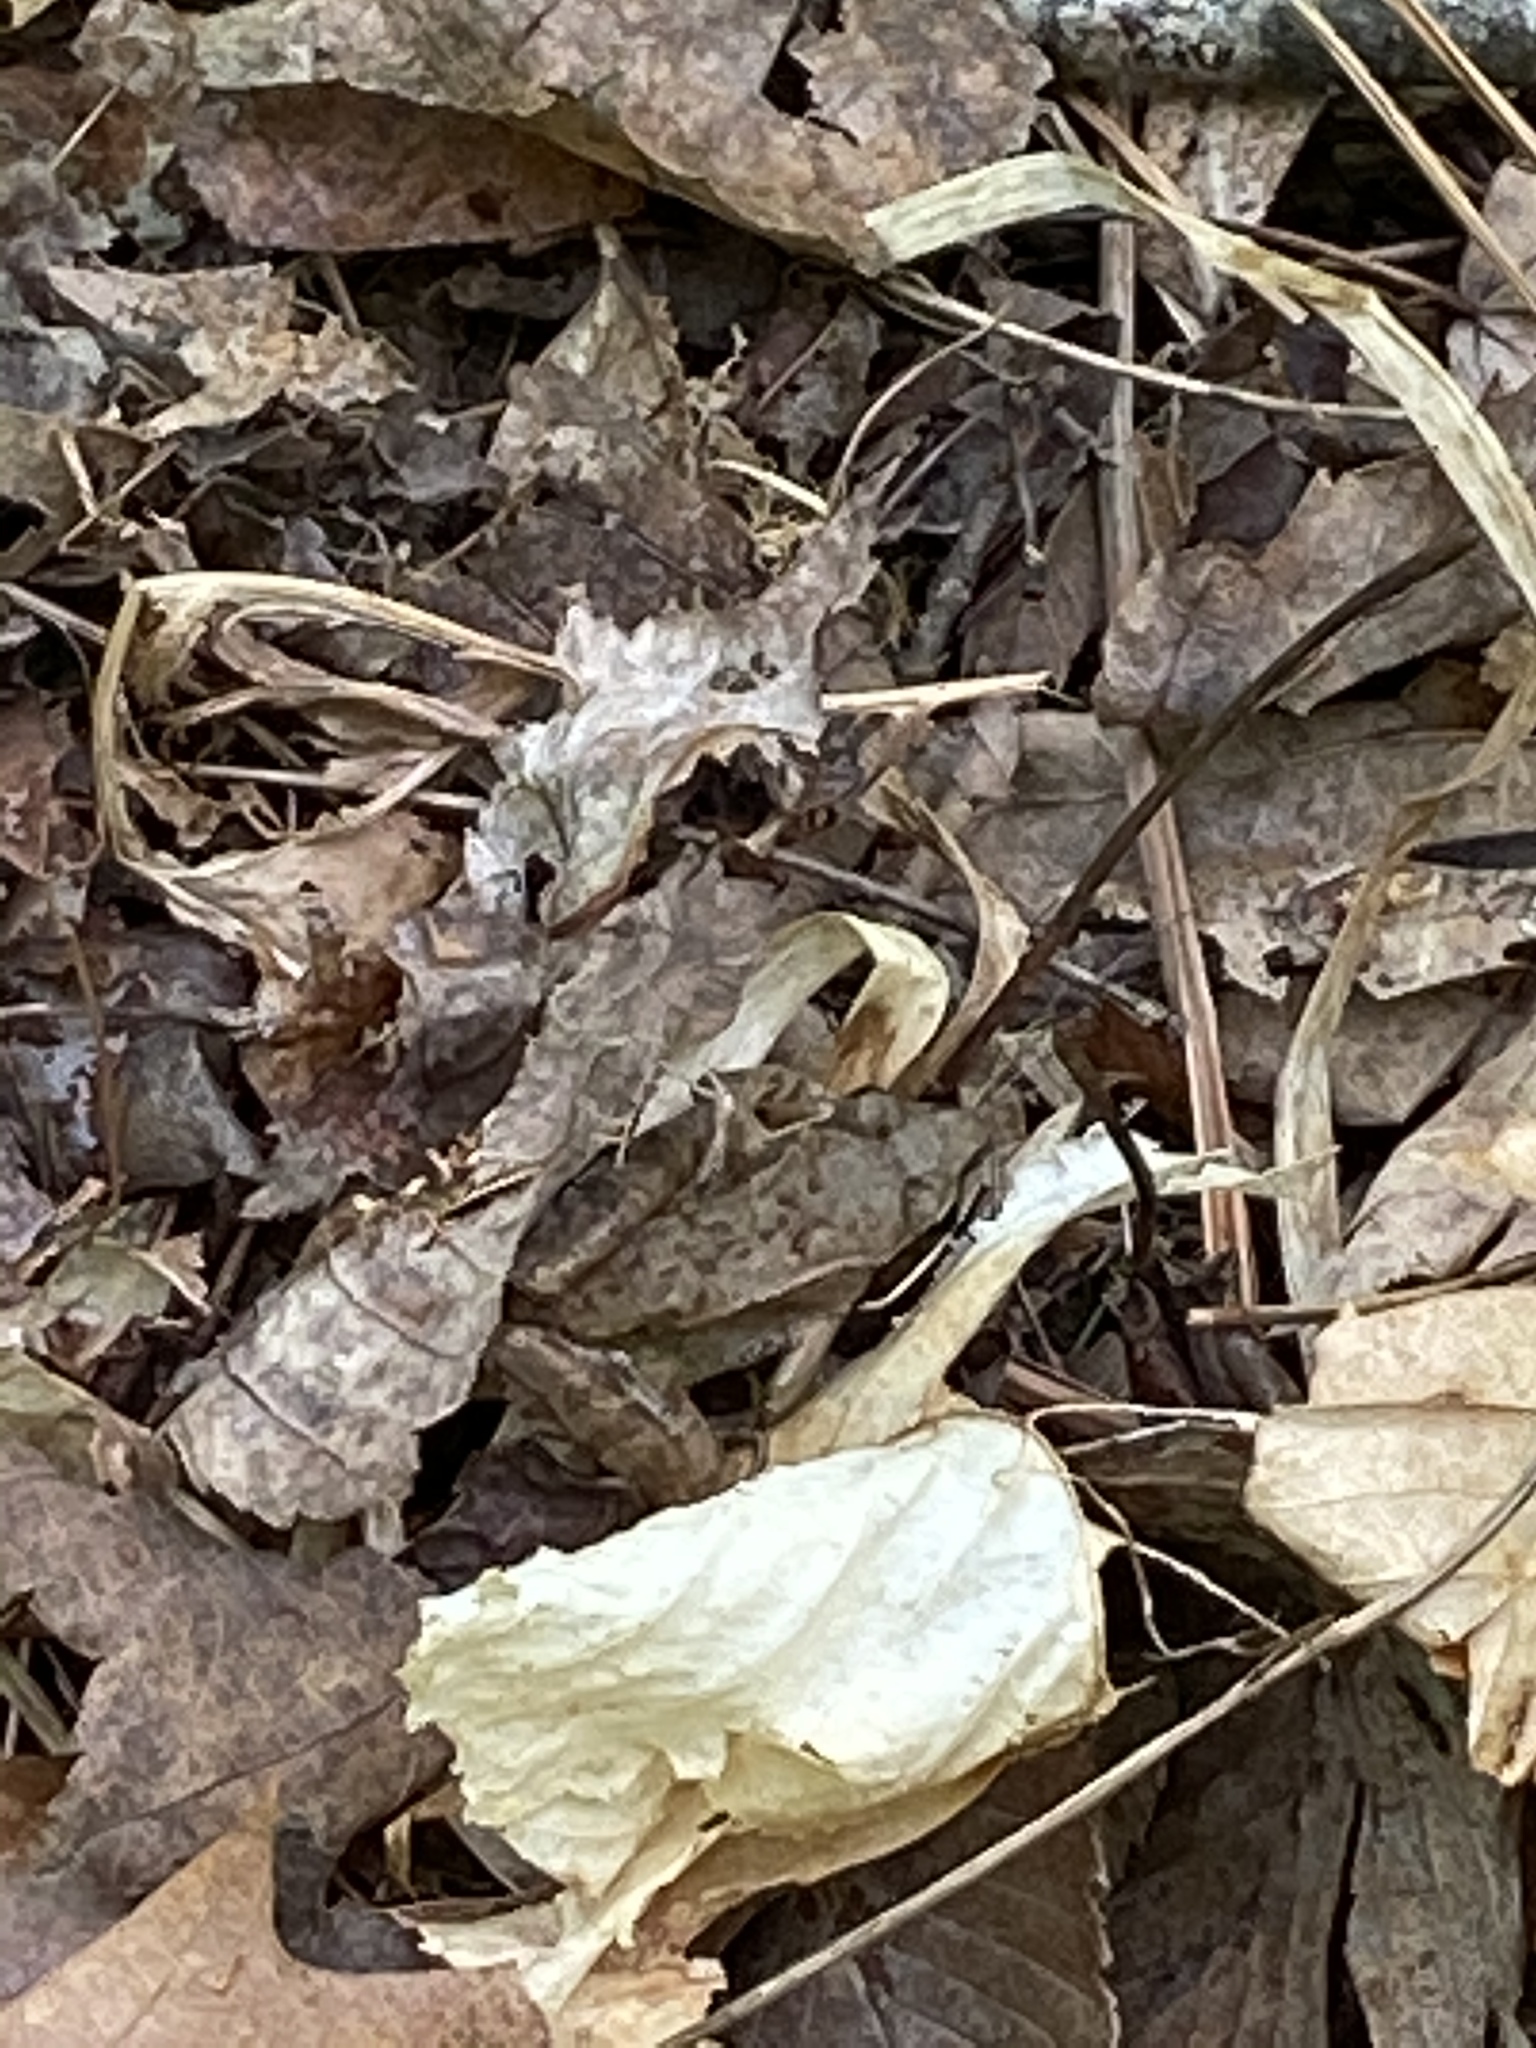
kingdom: Animalia
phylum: Chordata
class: Amphibia
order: Anura
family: Ranidae
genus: Lithobates
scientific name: Lithobates sylvaticus
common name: Wood frog
